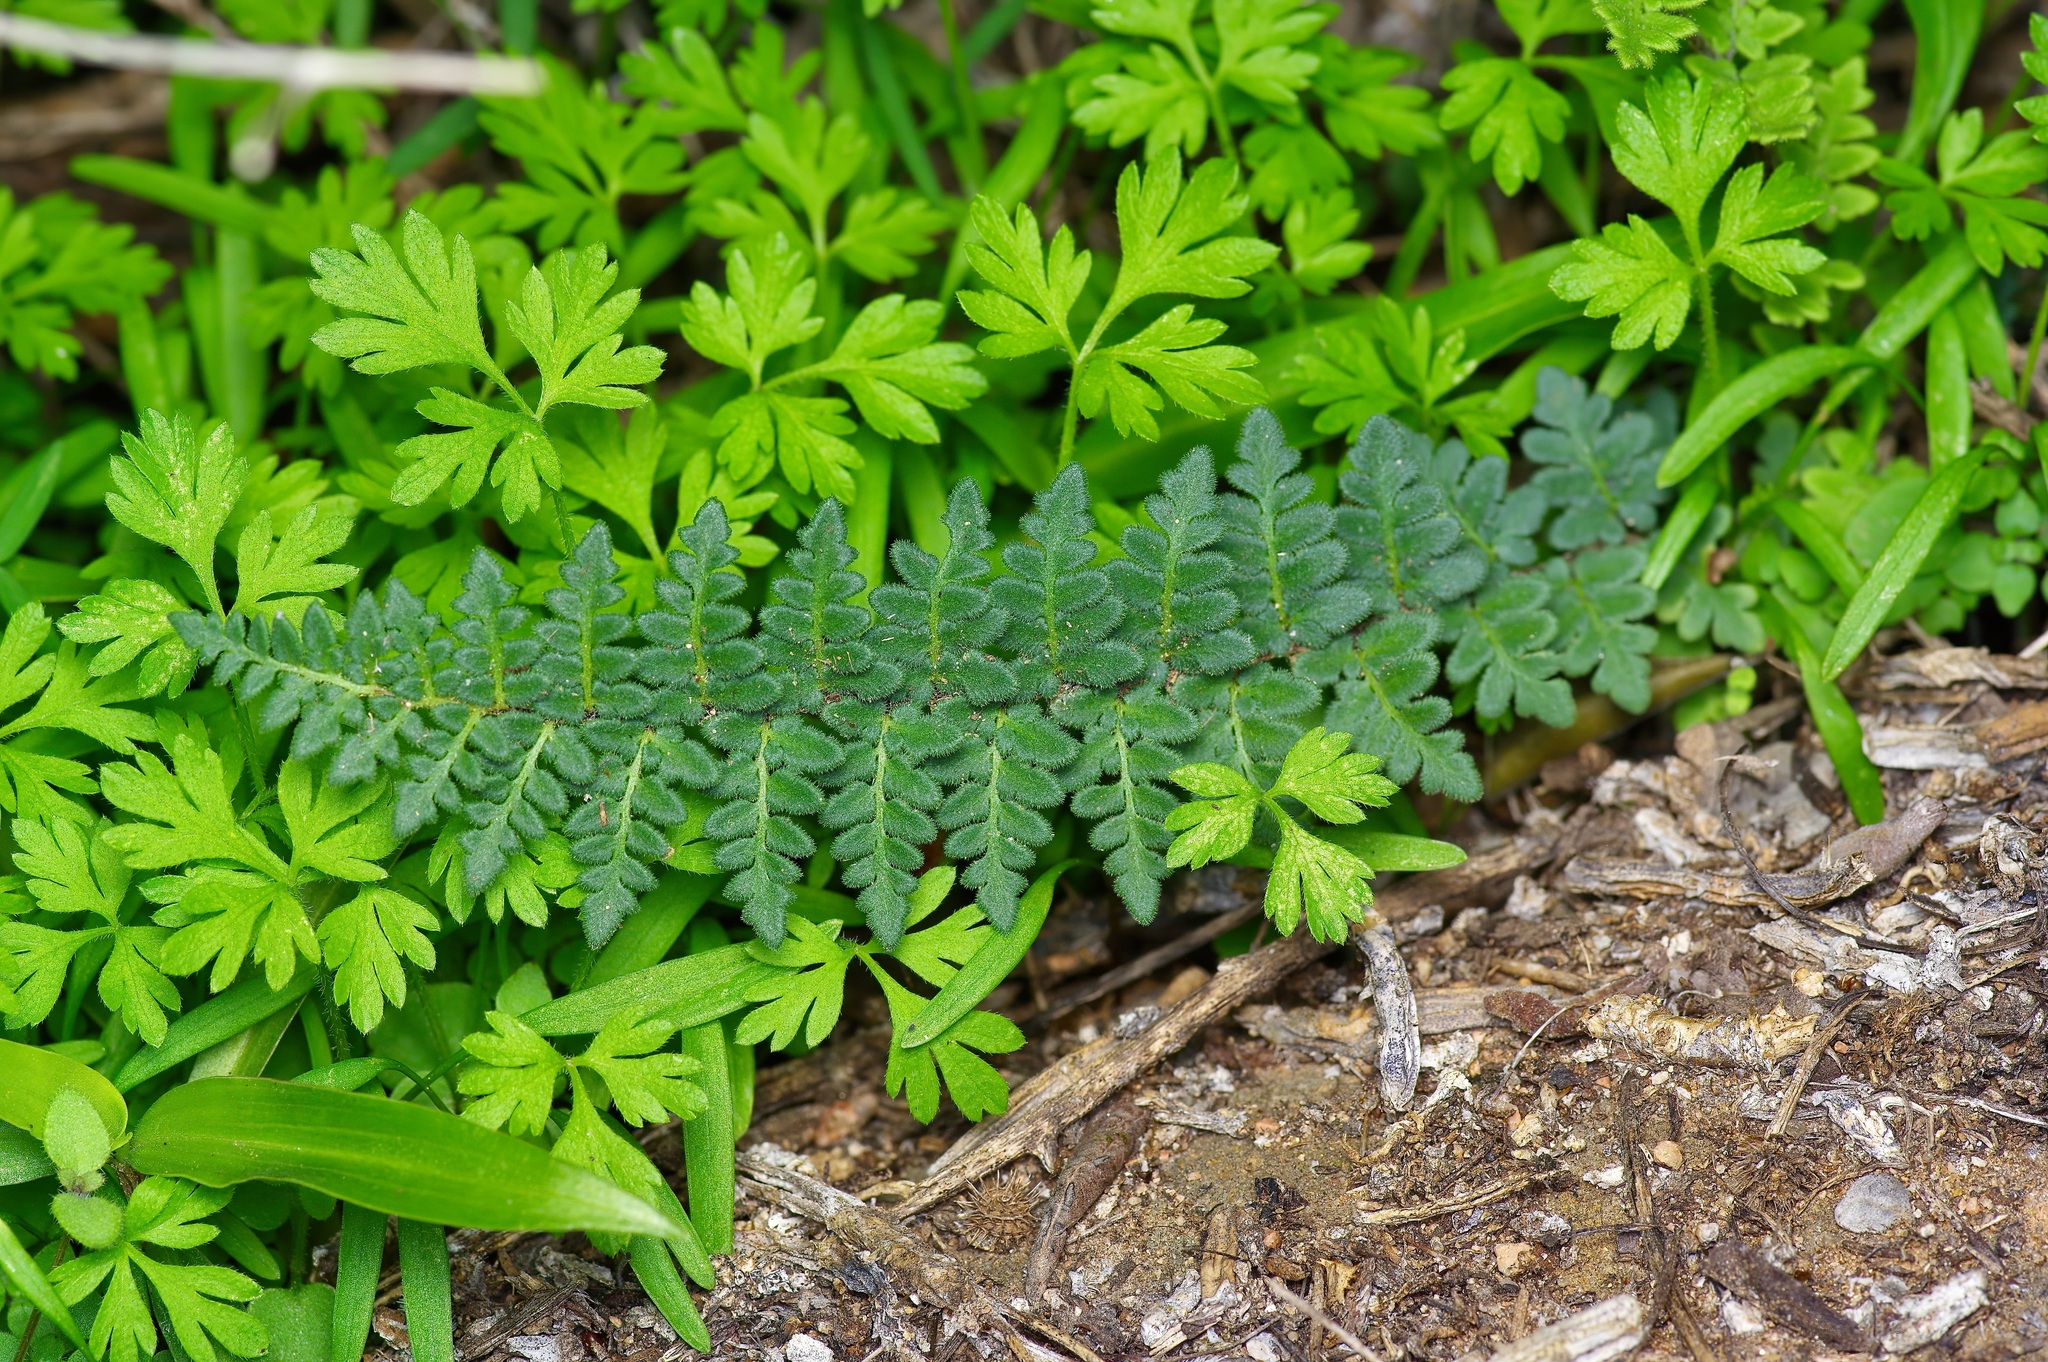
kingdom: Plantae
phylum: Tracheophyta
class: Polypodiopsida
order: Polypodiales
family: Pteridaceae
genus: Myriopteris
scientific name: Myriopteris scabra
